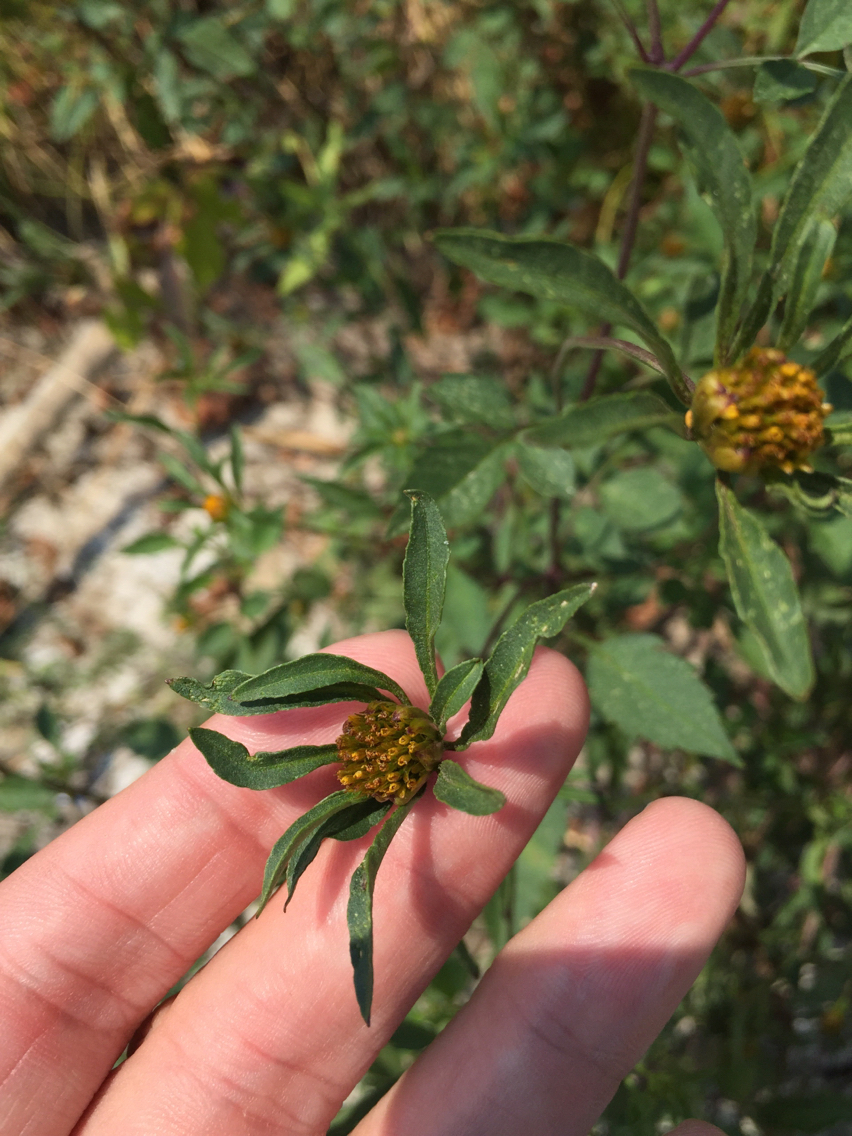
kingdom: Plantae
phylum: Tracheophyta
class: Magnoliopsida
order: Asterales
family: Asteraceae
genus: Bidens
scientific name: Bidens frondosa
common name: Beggarticks
